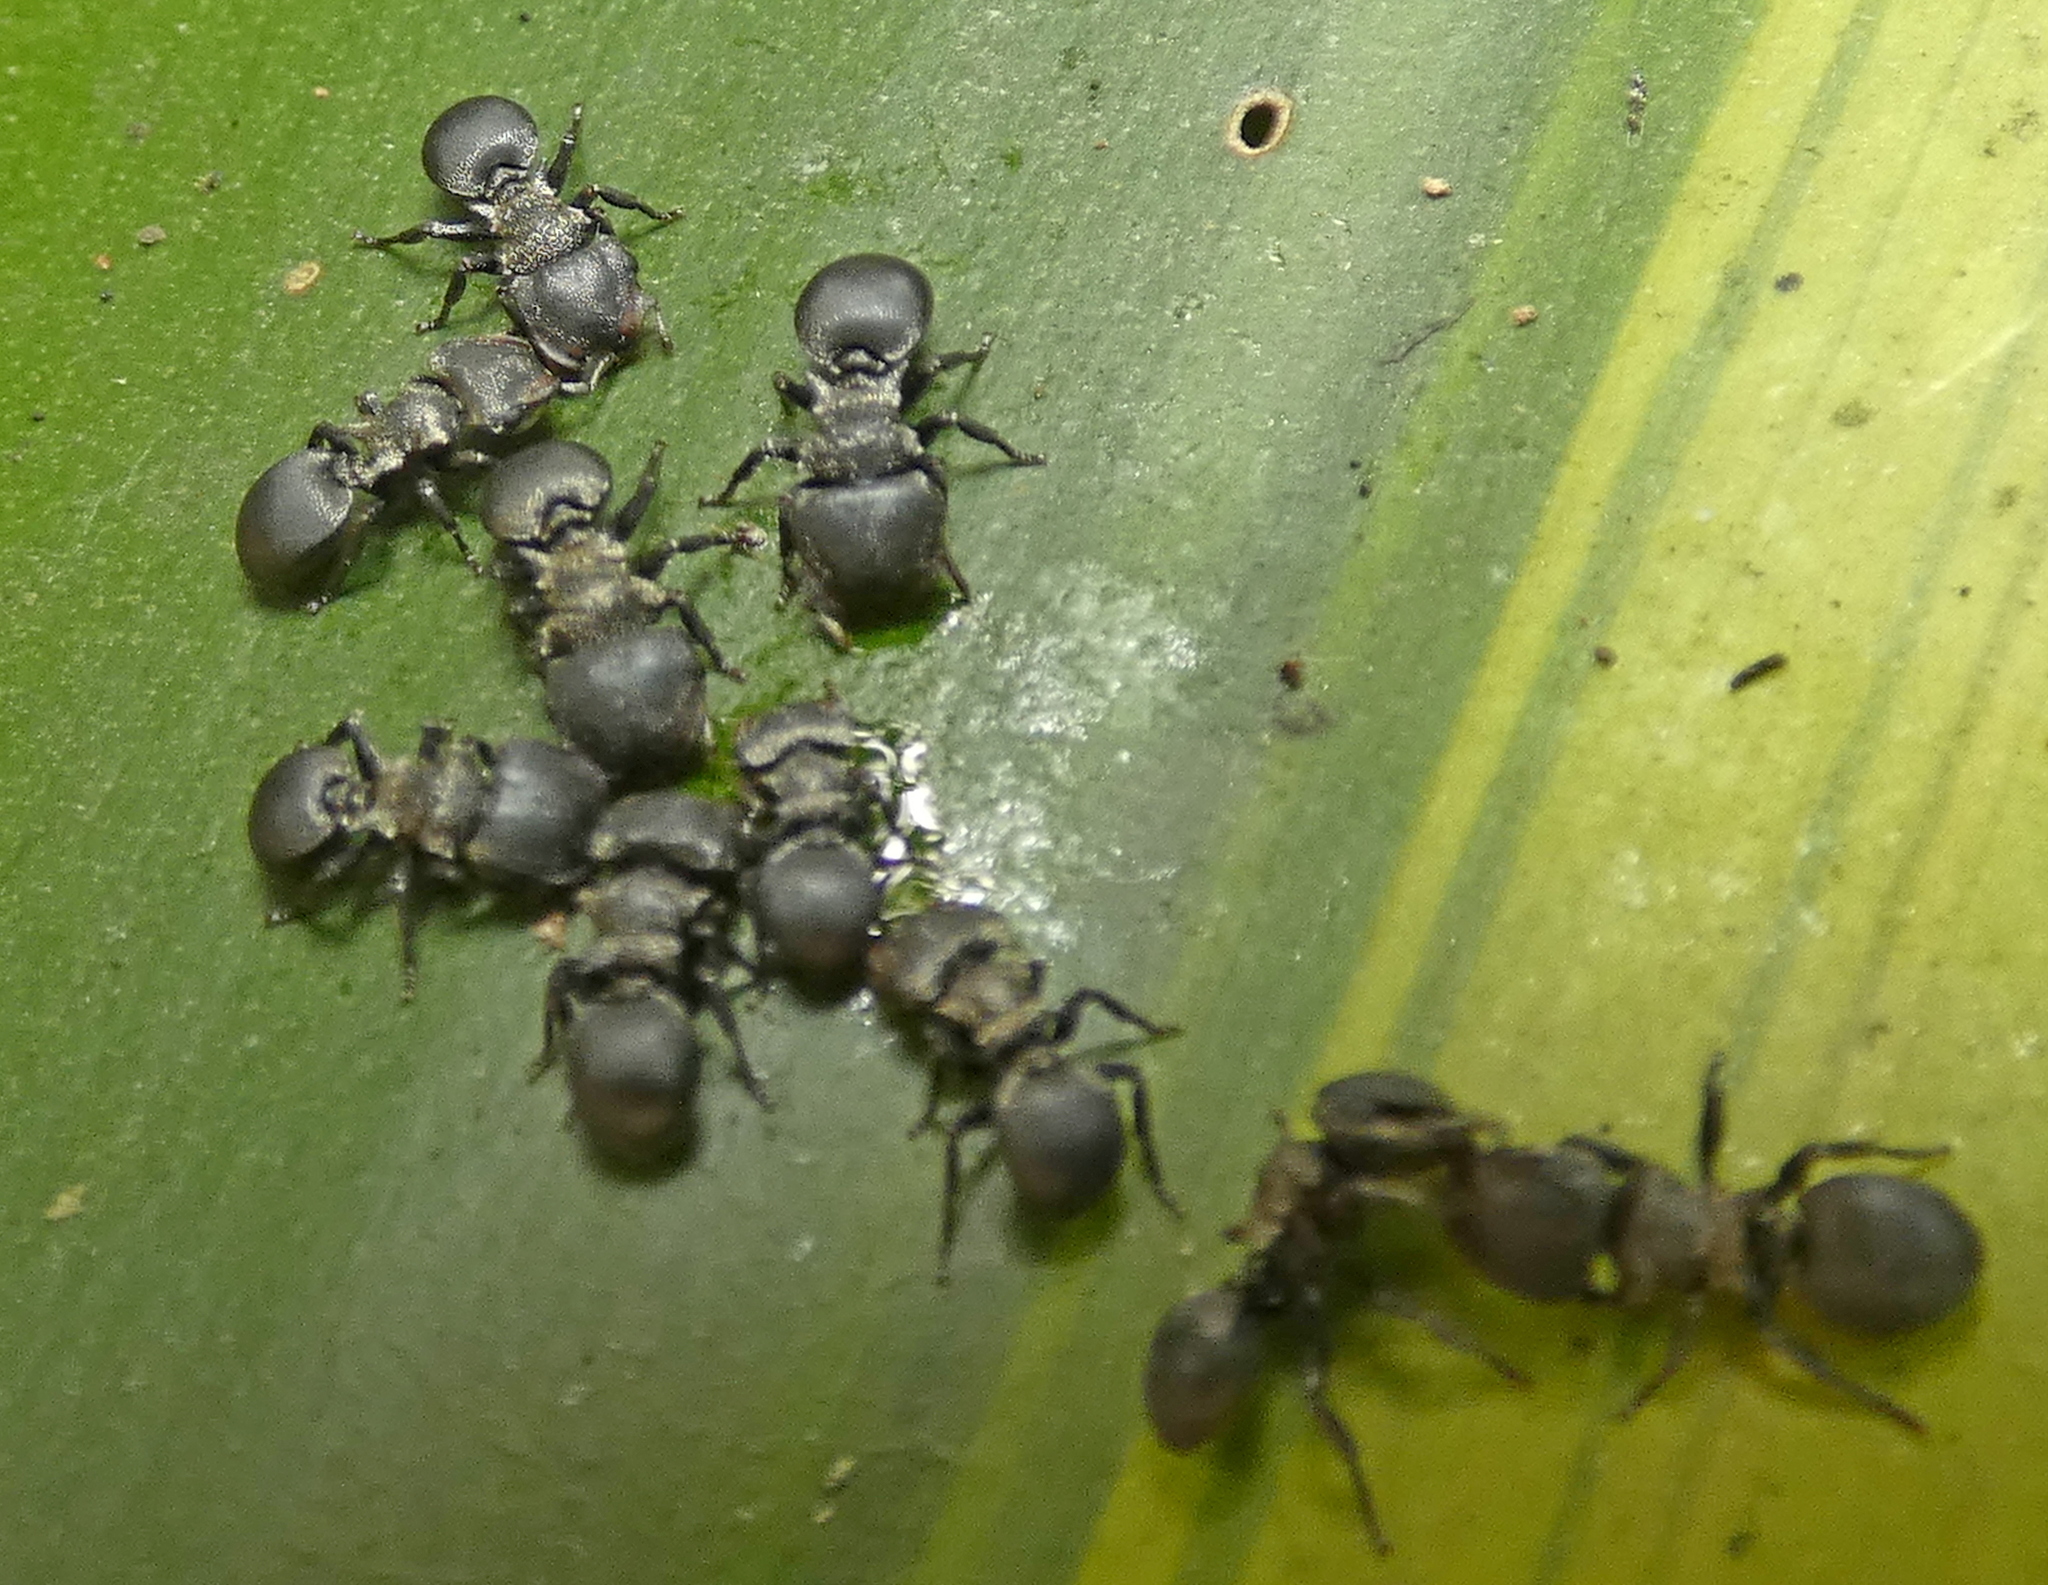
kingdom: Animalia
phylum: Arthropoda
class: Insecta
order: Hymenoptera
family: Formicidae
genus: Cephalotes
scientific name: Cephalotes
